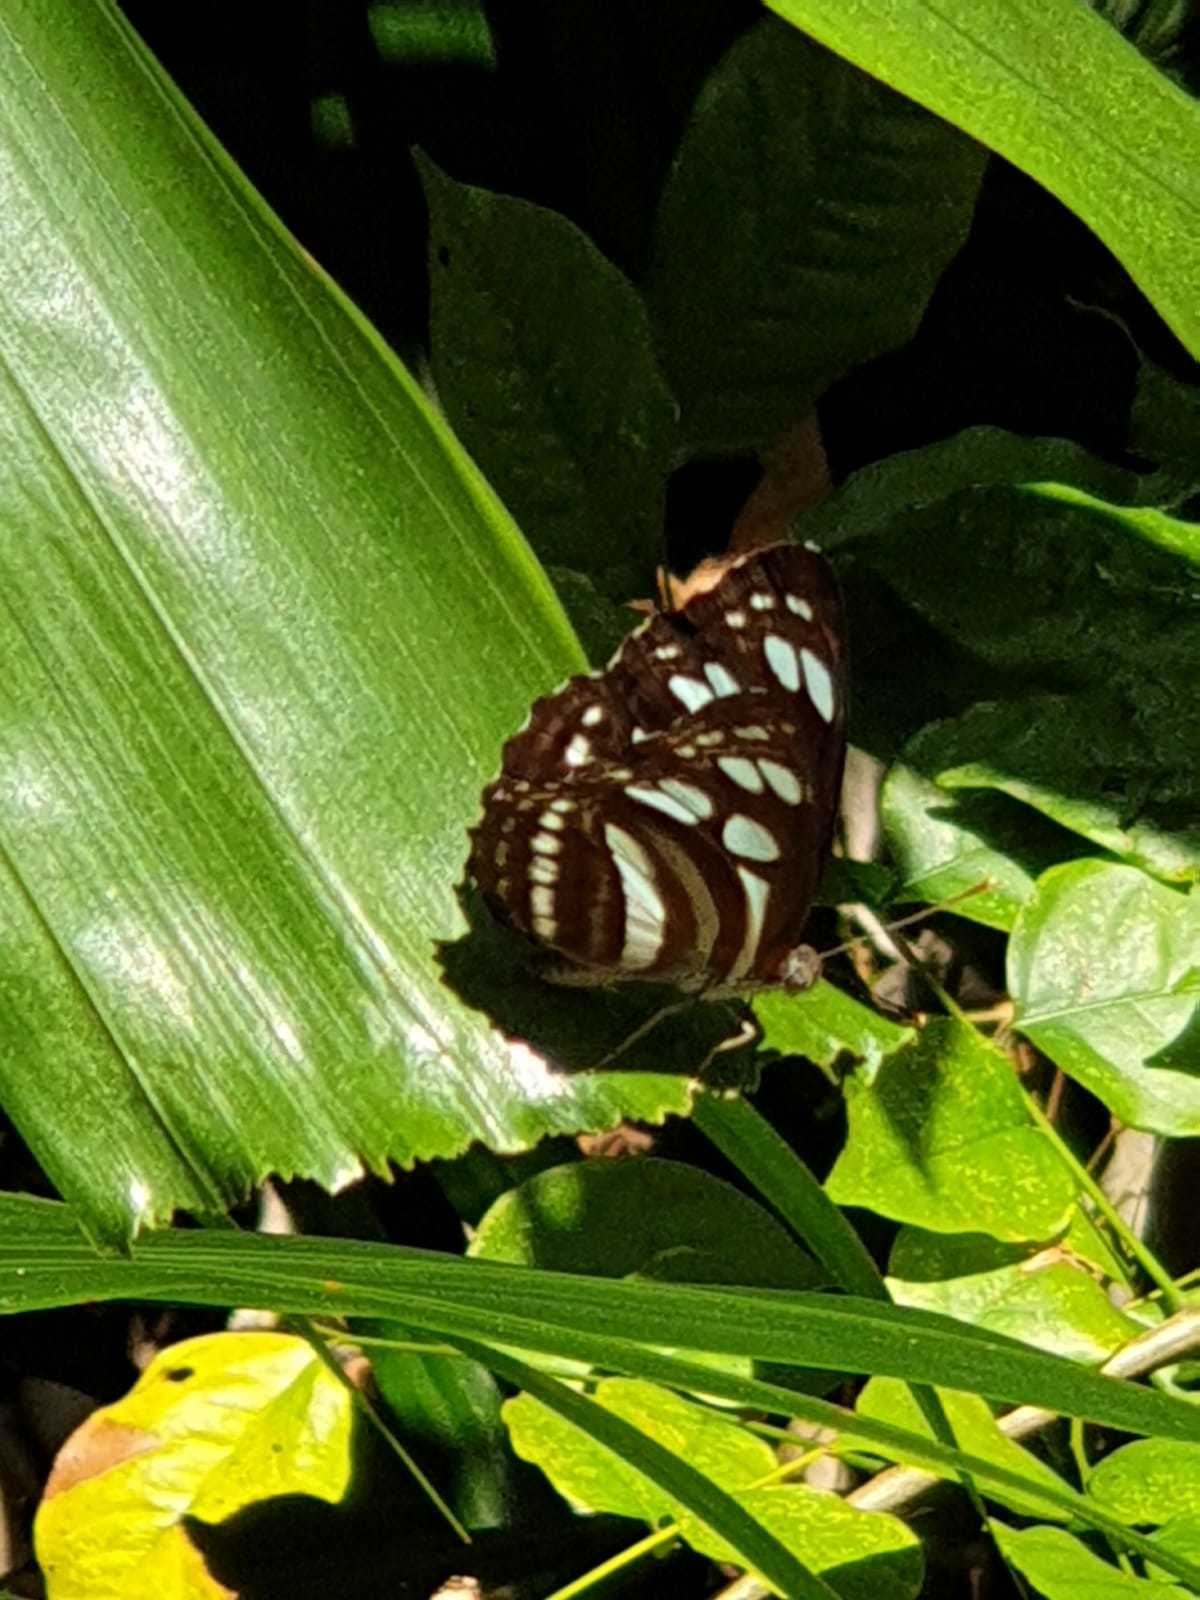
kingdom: Animalia
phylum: Arthropoda
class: Insecta
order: Lepidoptera
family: Nymphalidae
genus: Phaedyma
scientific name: Phaedyma columella
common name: Short banded sailer
